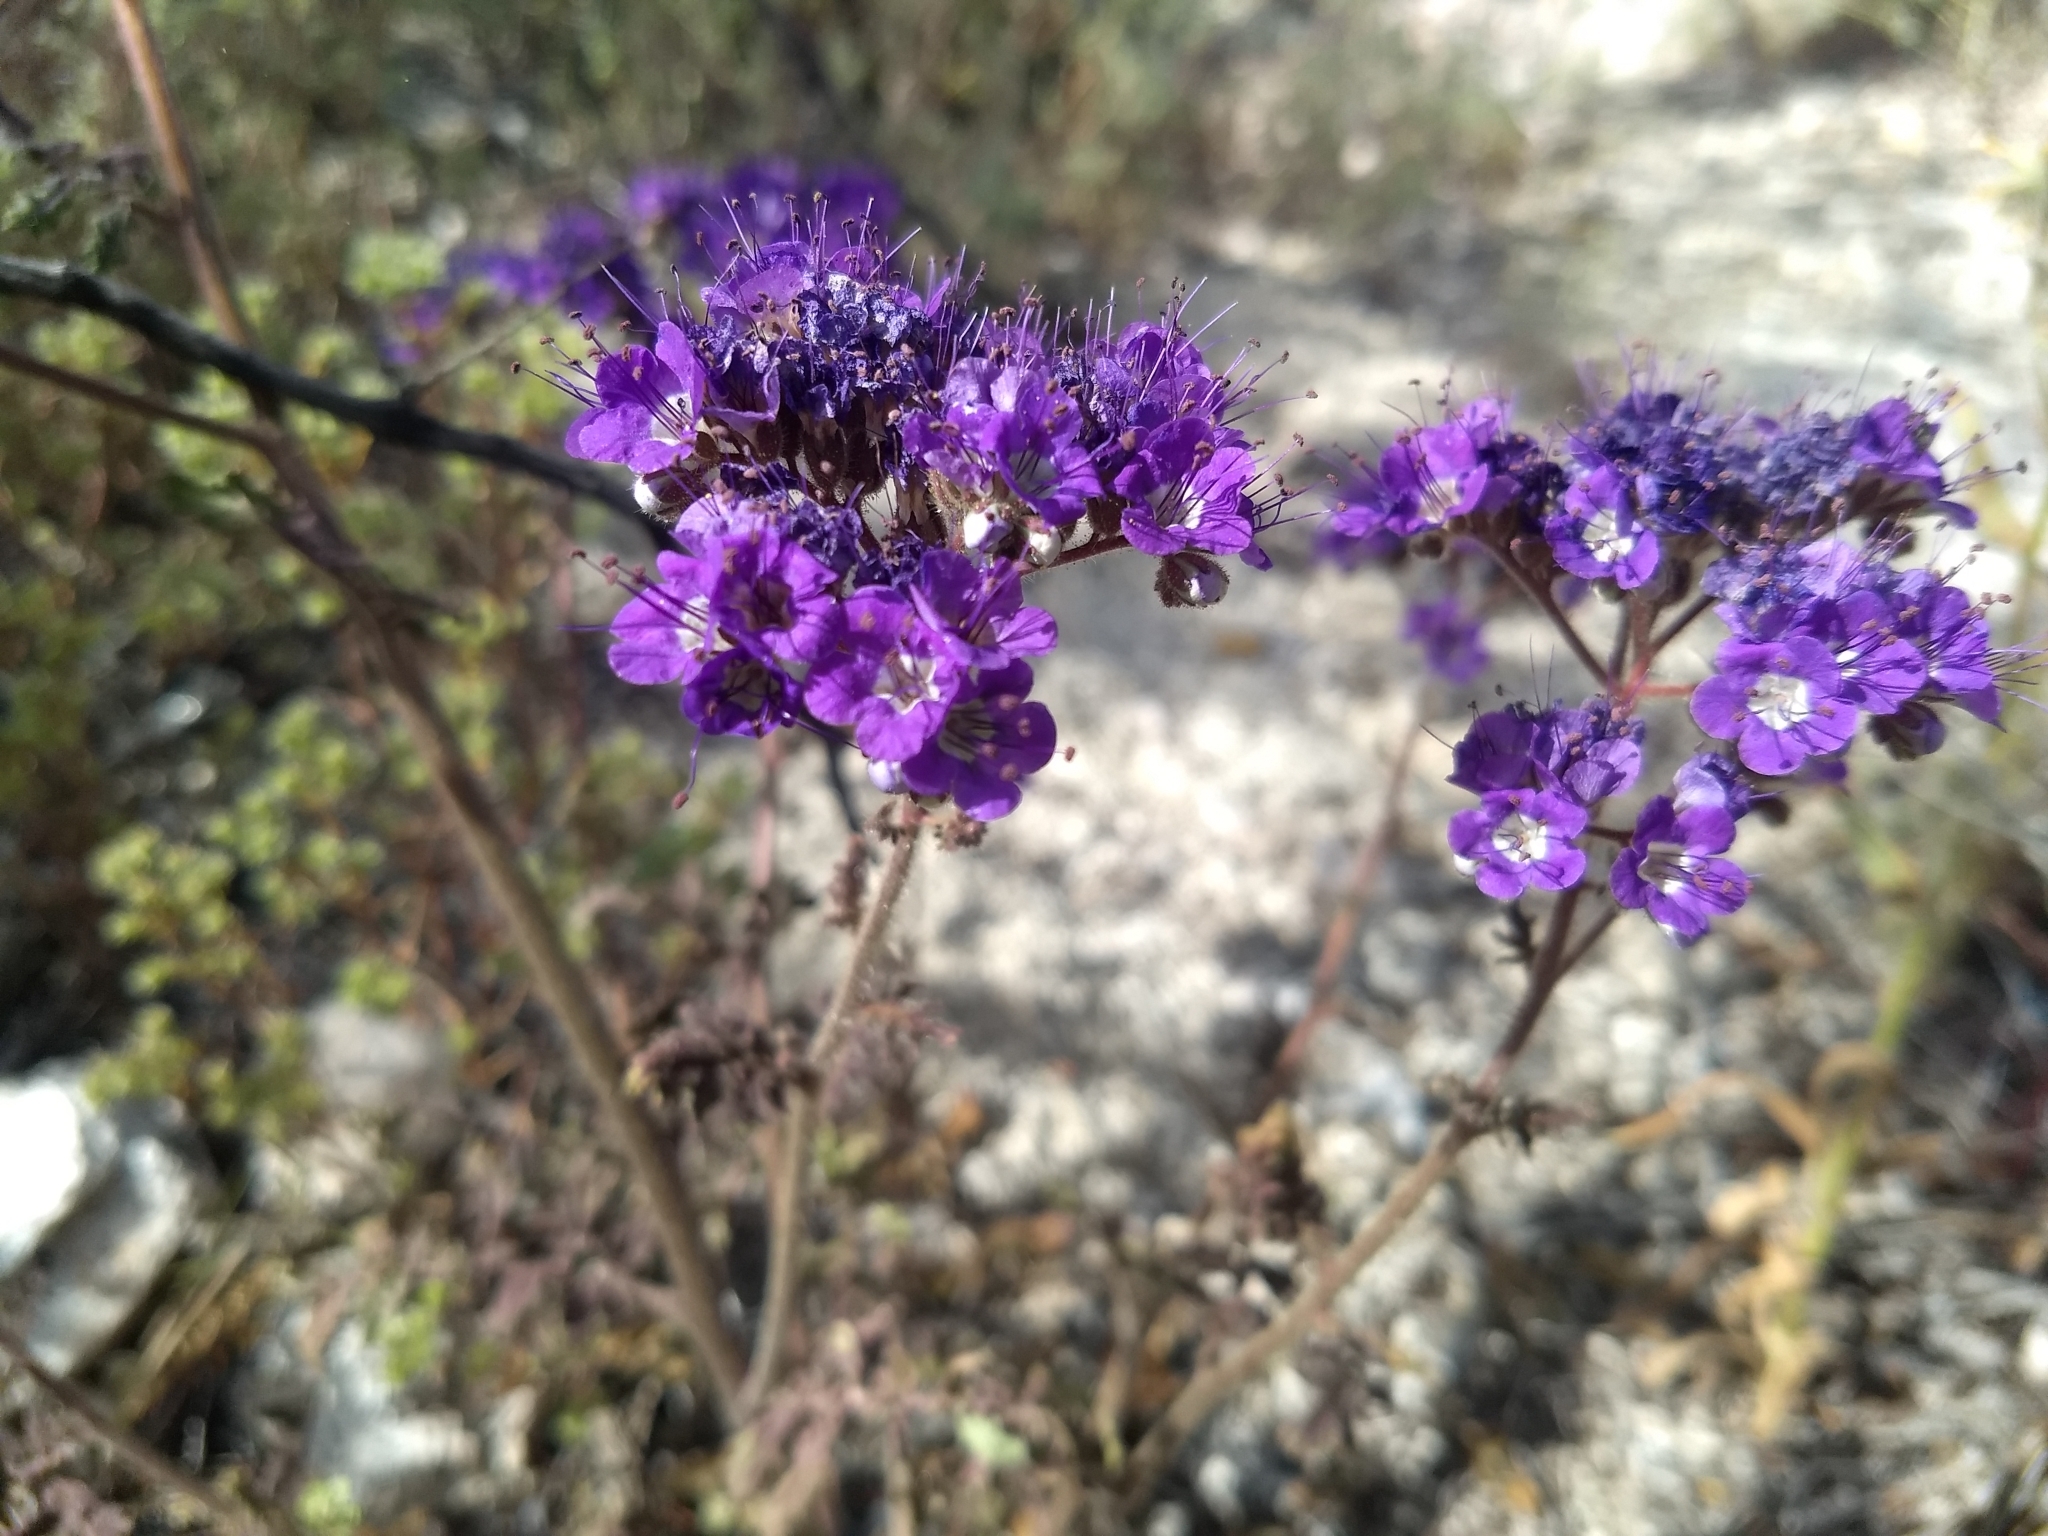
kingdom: Plantae
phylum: Tracheophyta
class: Magnoliopsida
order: Boraginales
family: Hydrophyllaceae
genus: Phacelia
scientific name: Phacelia crenulata
